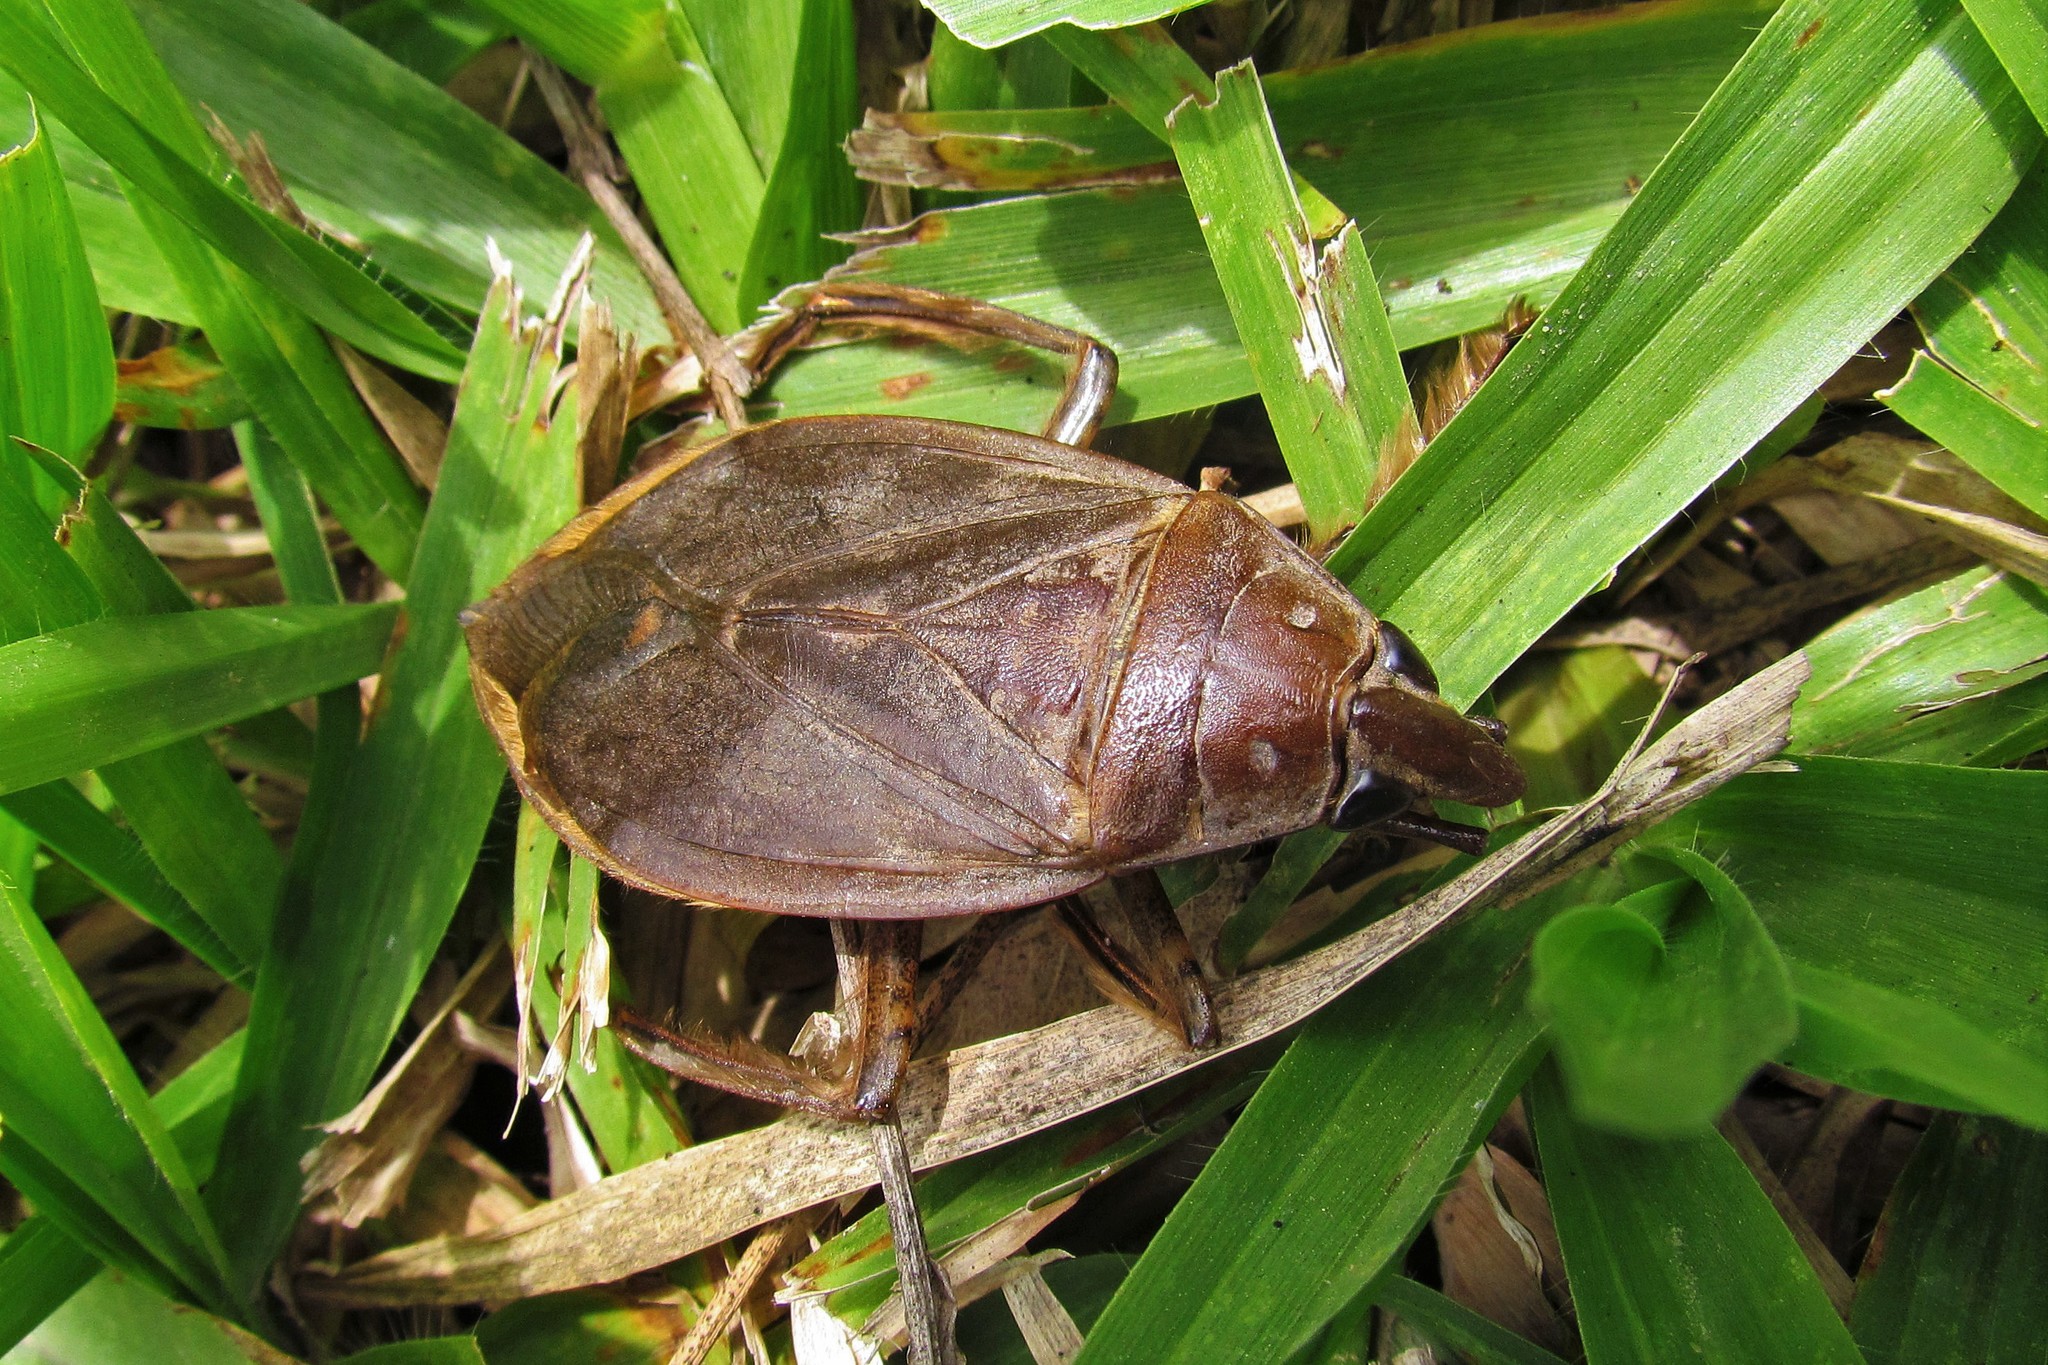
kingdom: Animalia
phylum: Arthropoda
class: Insecta
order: Hemiptera
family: Belostomatidae
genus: Belostoma
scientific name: Belostoma
